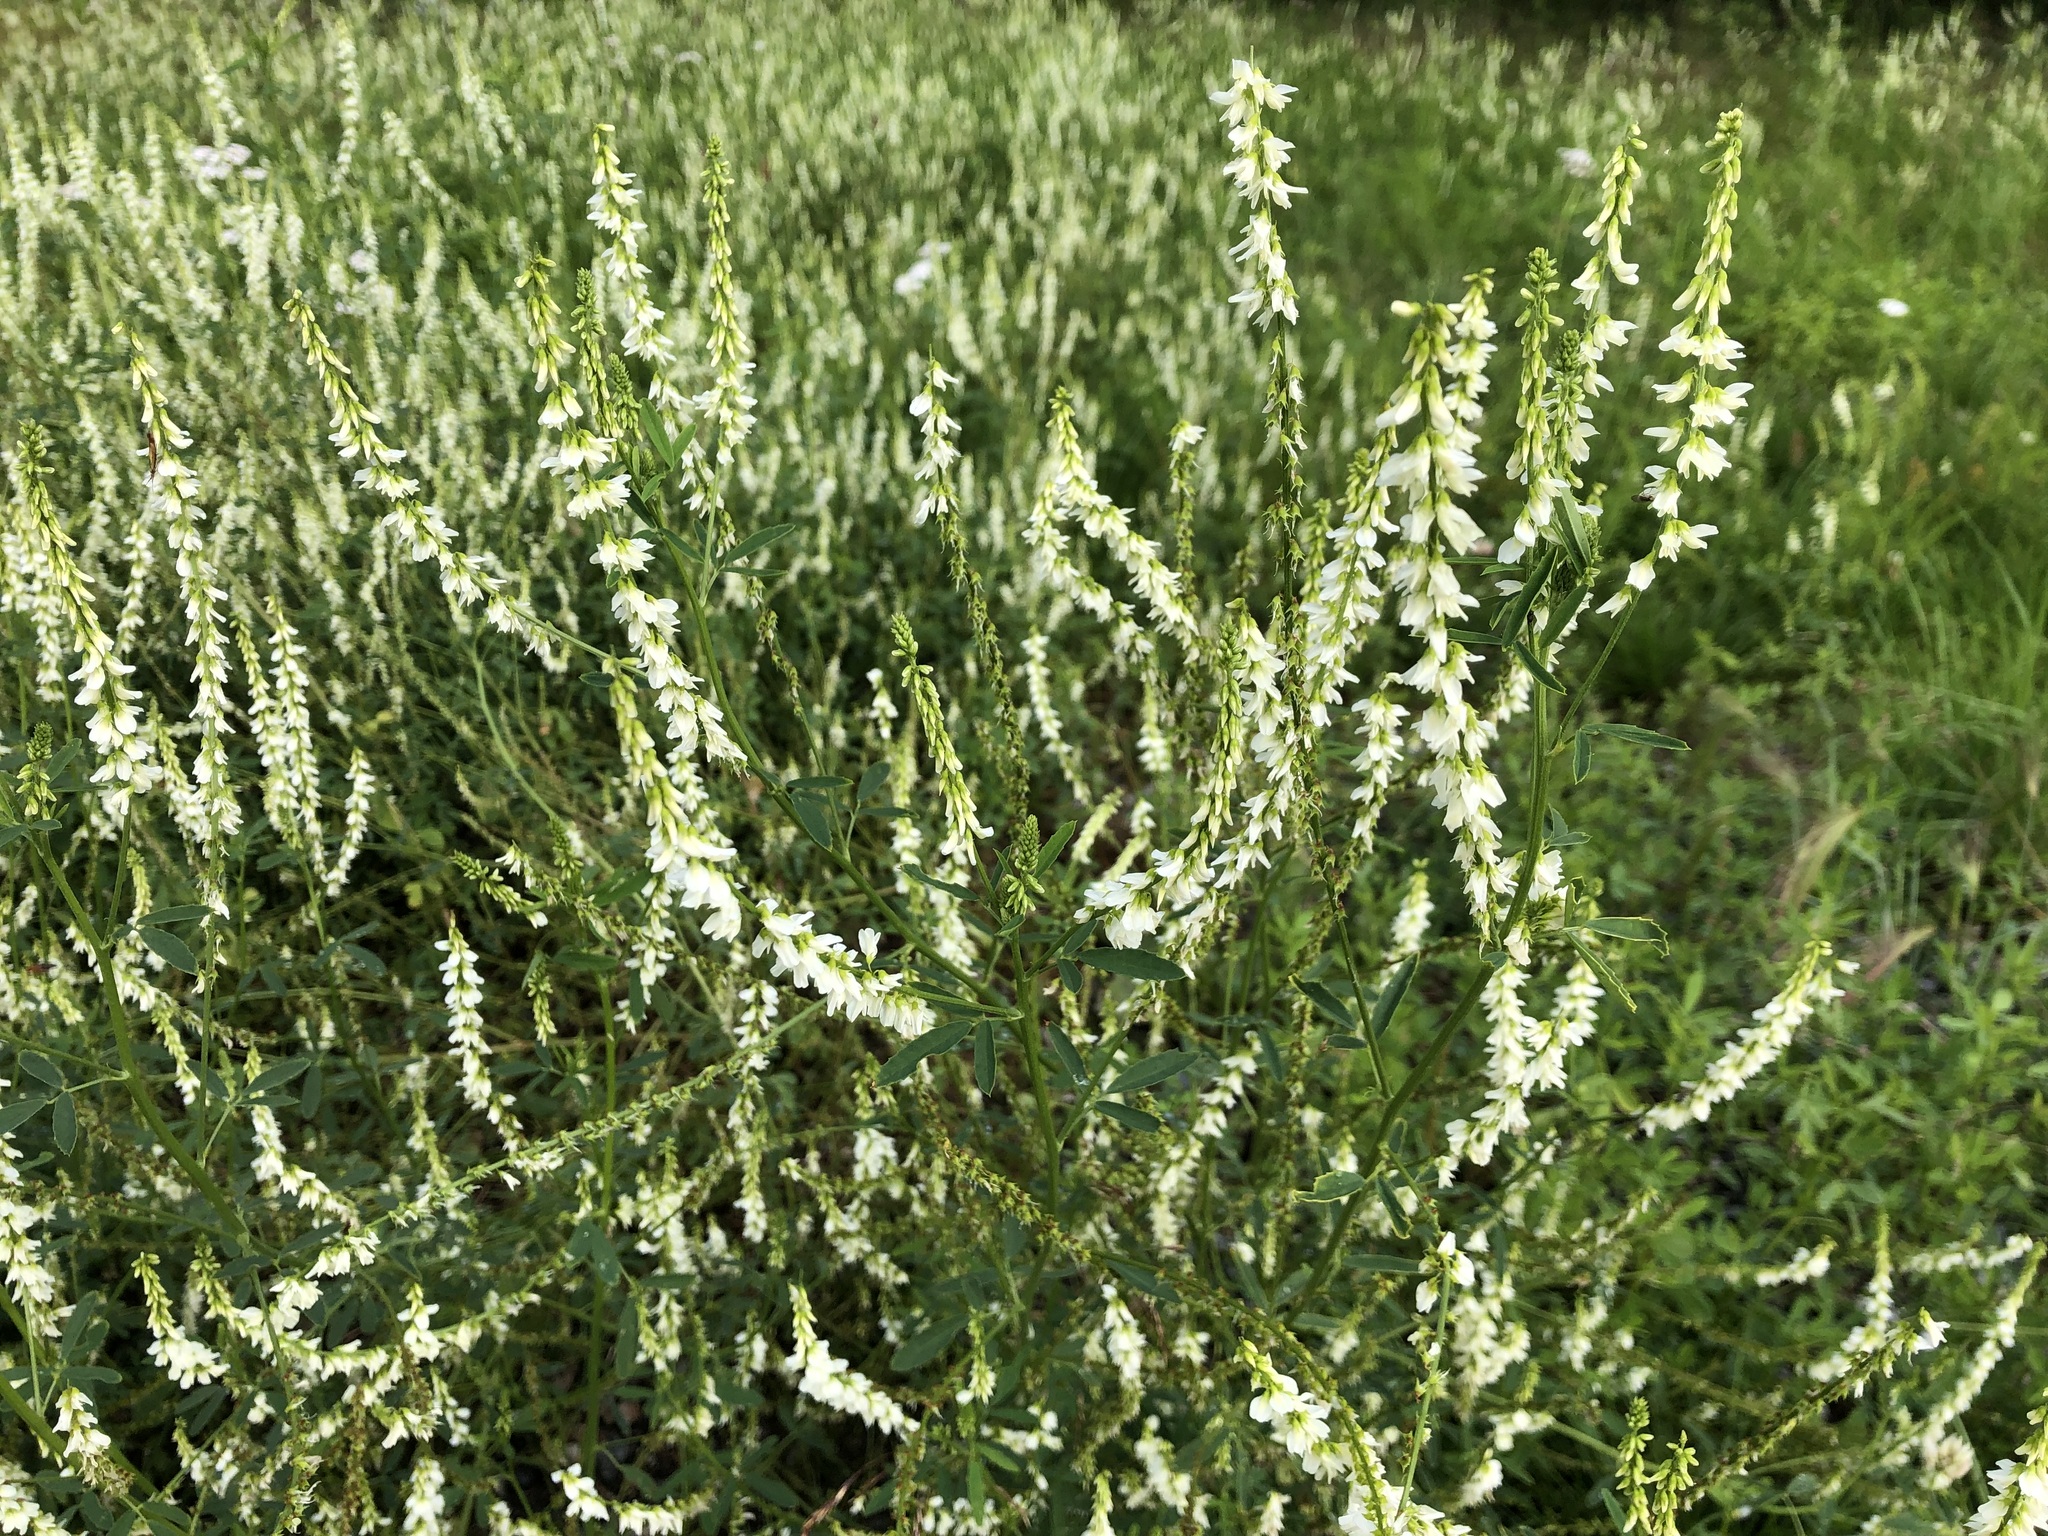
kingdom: Plantae
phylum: Tracheophyta
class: Magnoliopsida
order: Fabales
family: Fabaceae
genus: Melilotus
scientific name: Melilotus albus
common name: White melilot
